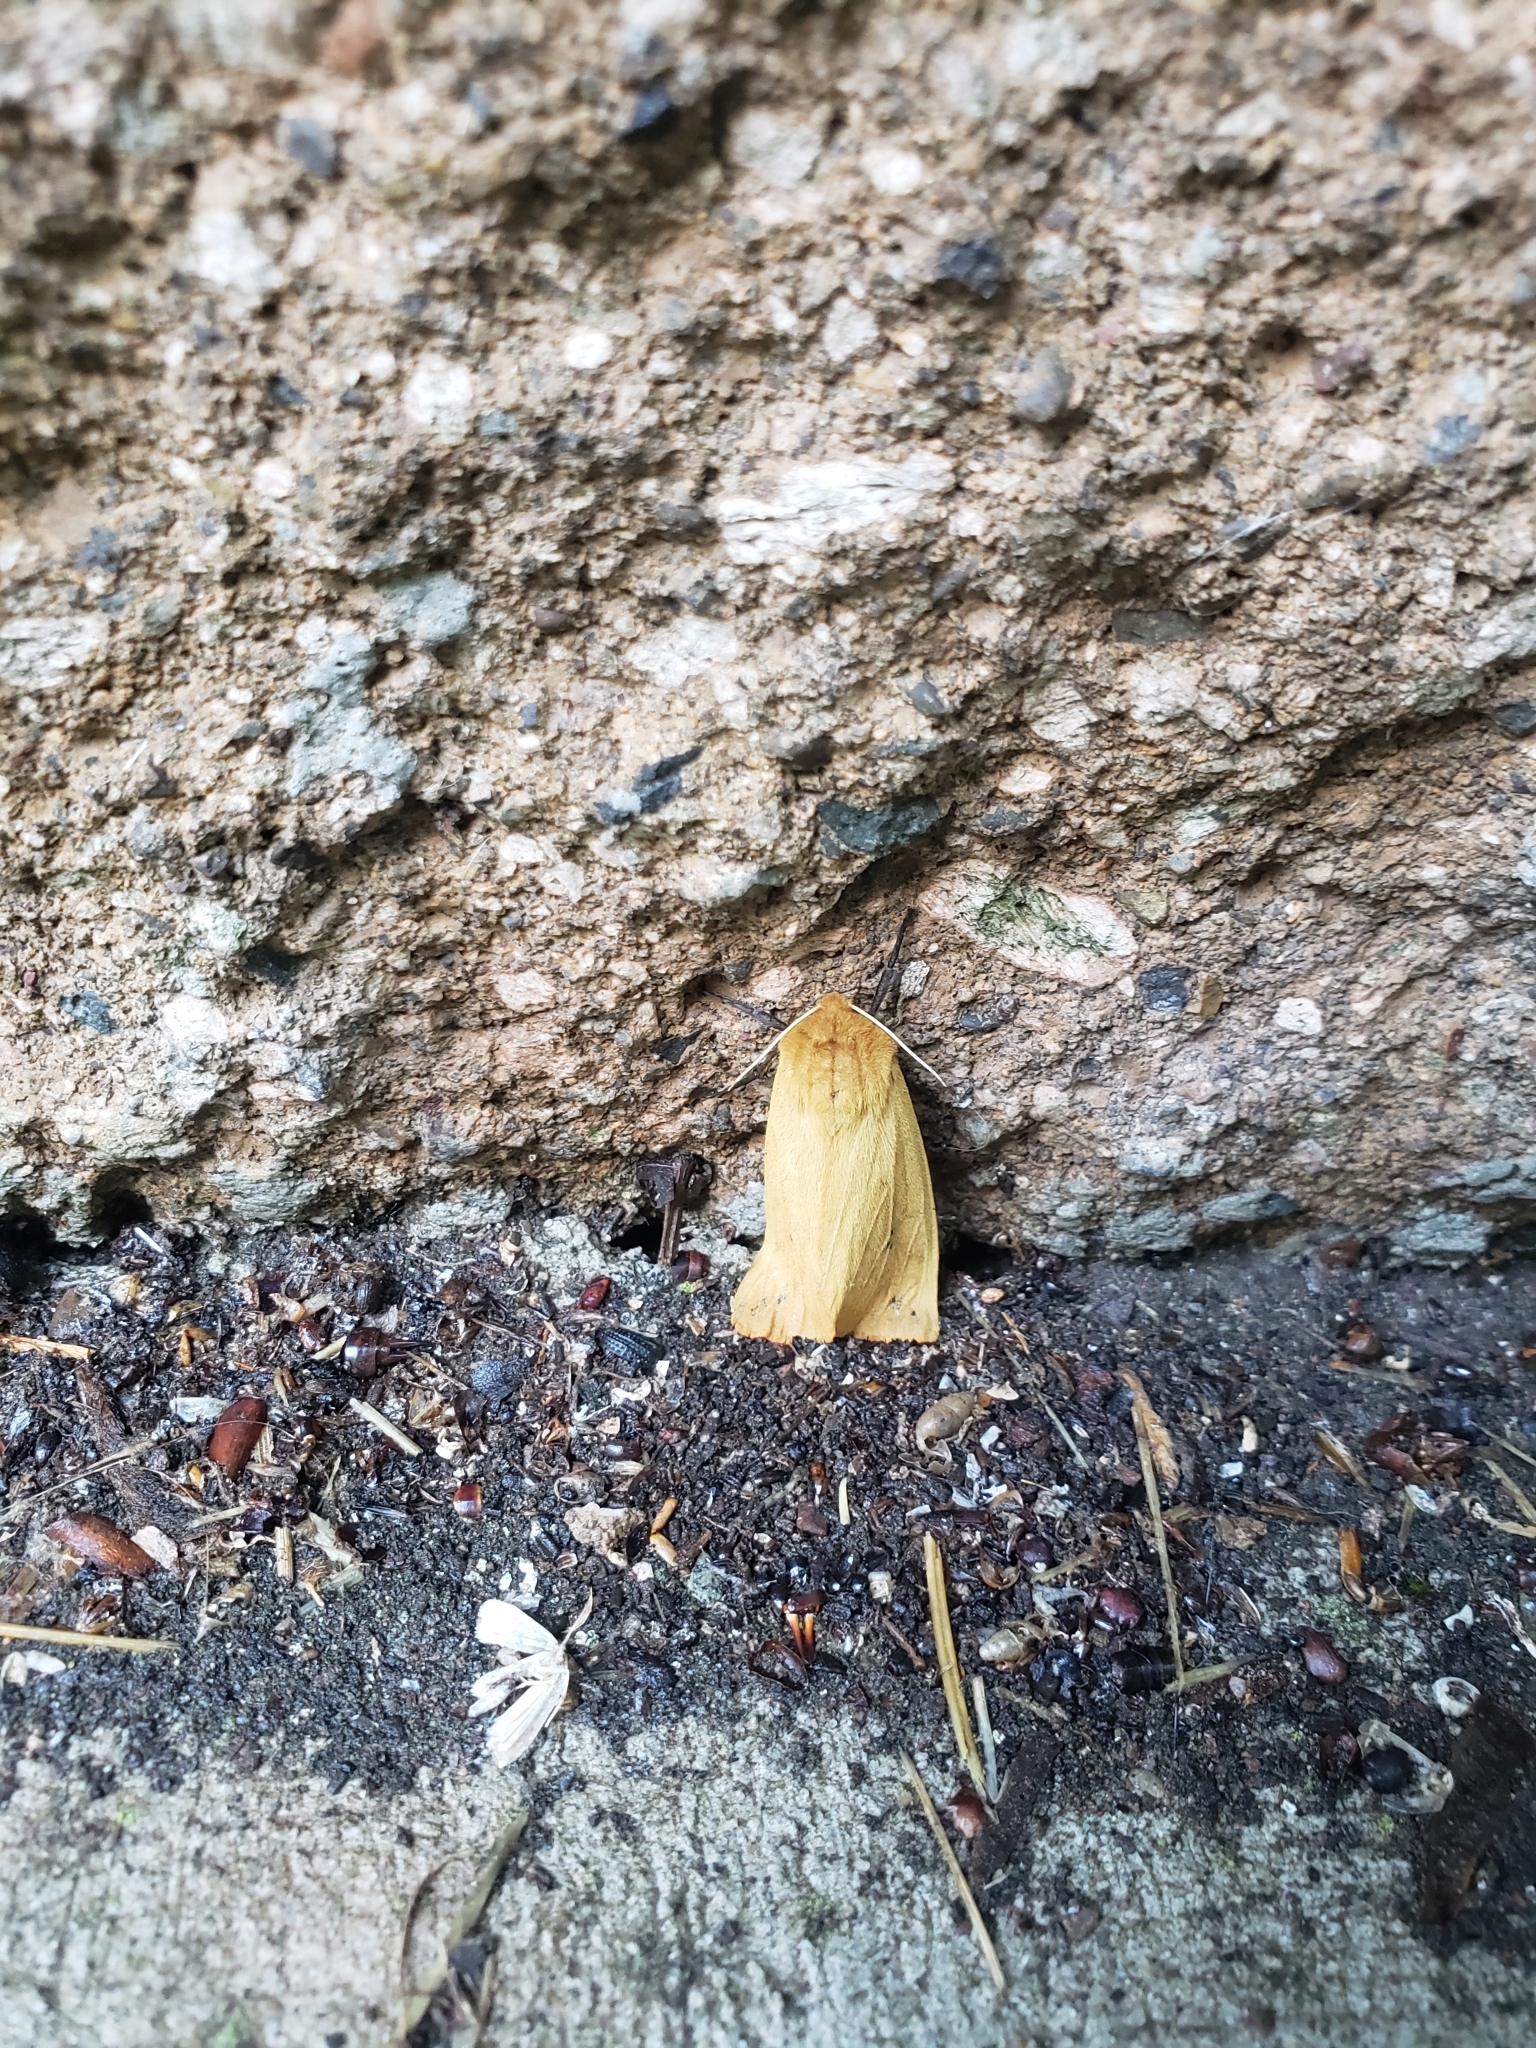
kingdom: Animalia
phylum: Arthropoda
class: Insecta
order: Lepidoptera
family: Erebidae
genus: Pyrrharctia
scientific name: Pyrrharctia isabella
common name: Isabella tiger moth
